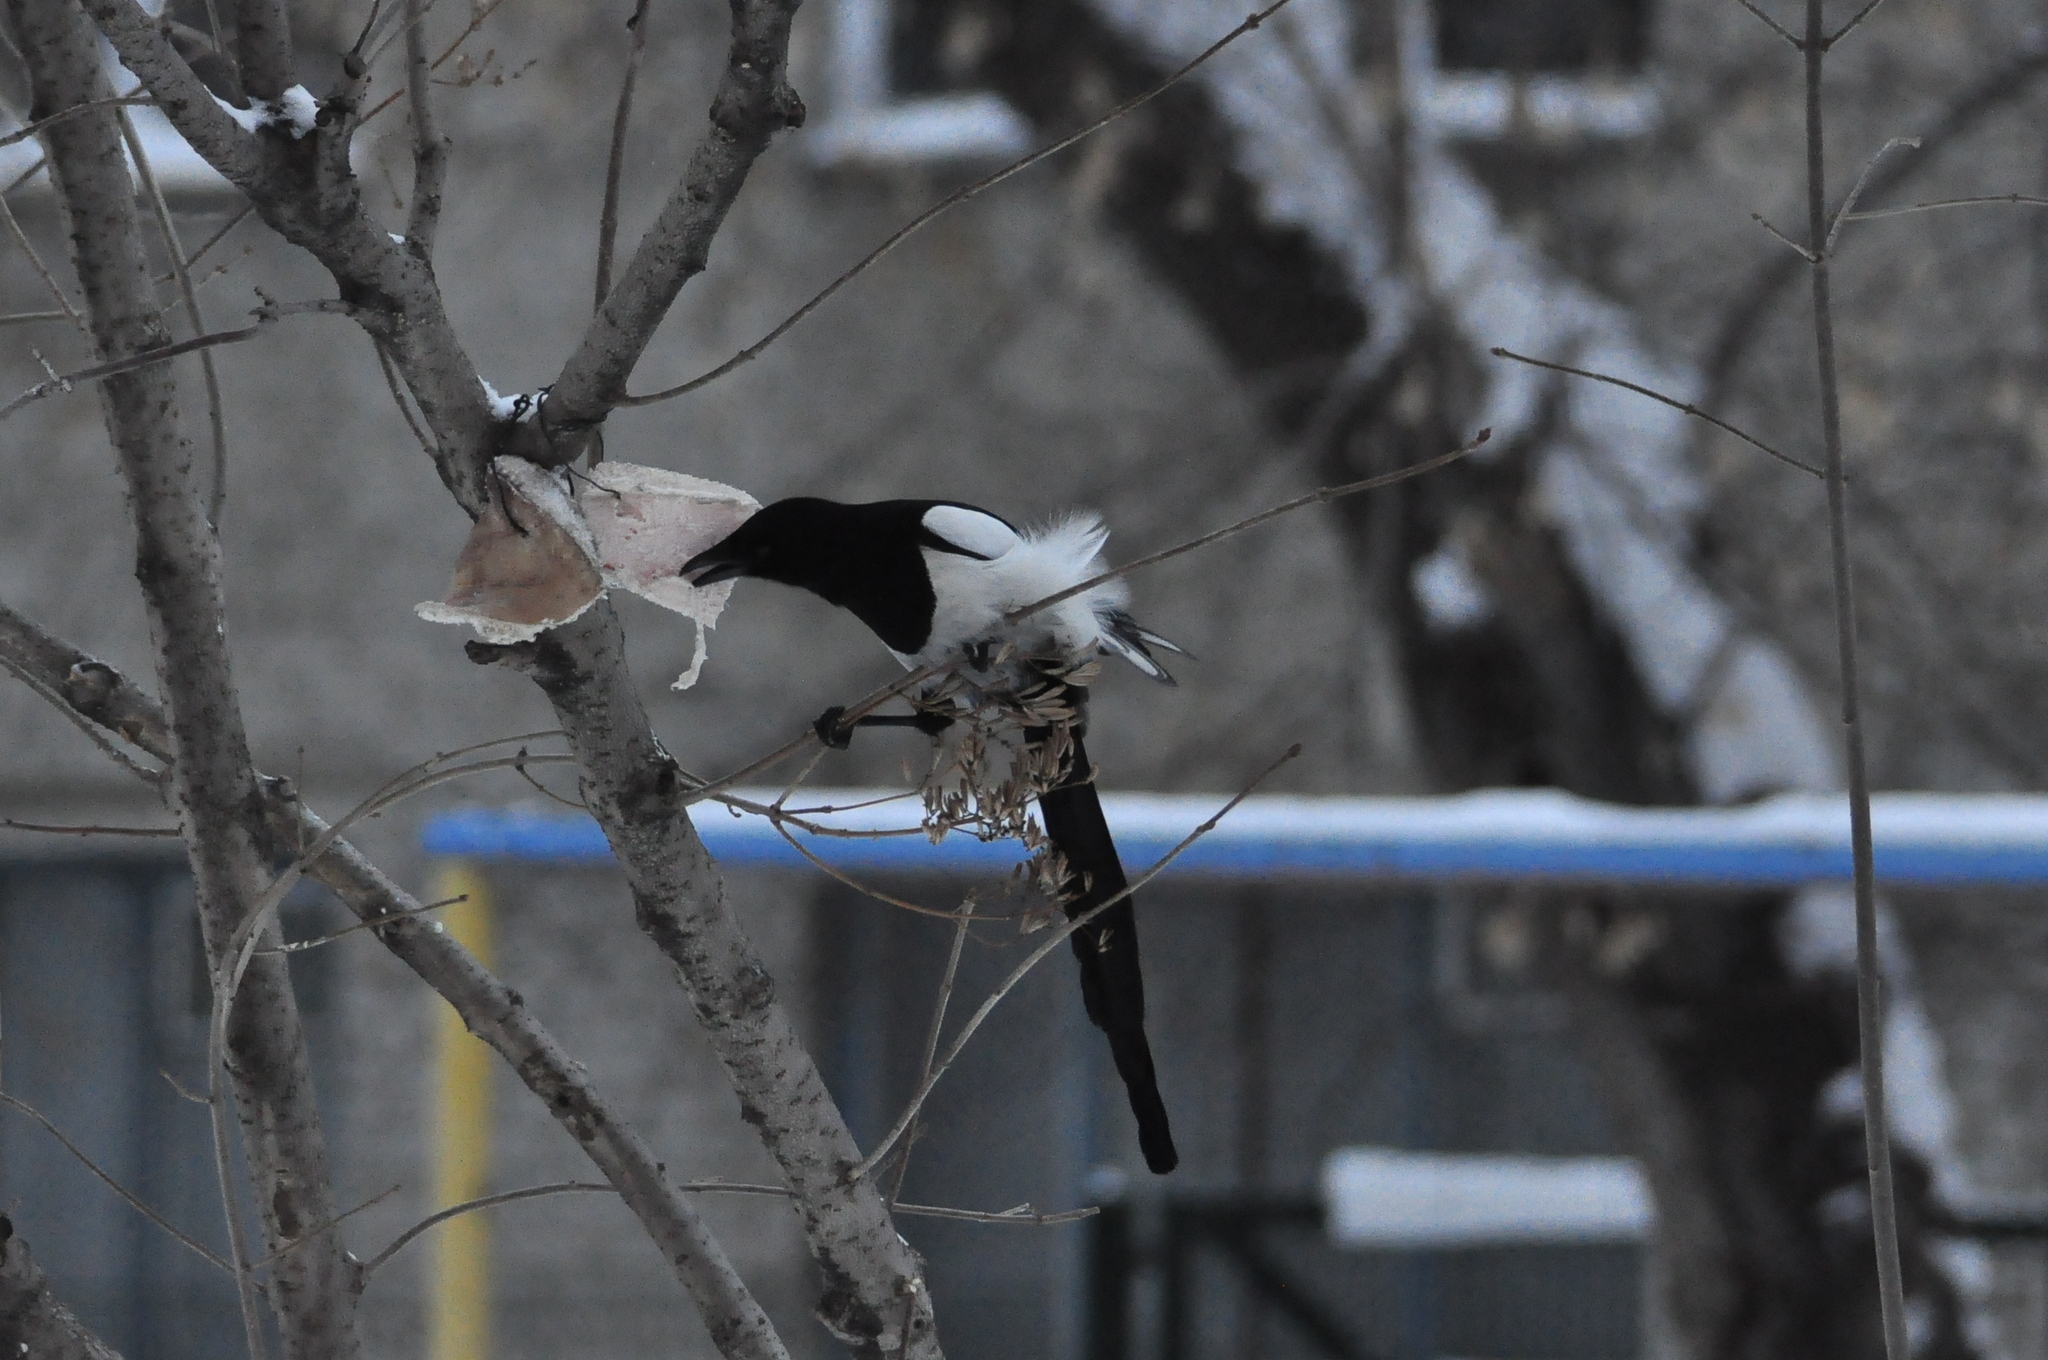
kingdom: Animalia
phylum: Chordata
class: Aves
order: Passeriformes
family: Corvidae
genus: Pica
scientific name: Pica pica
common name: Eurasian magpie
